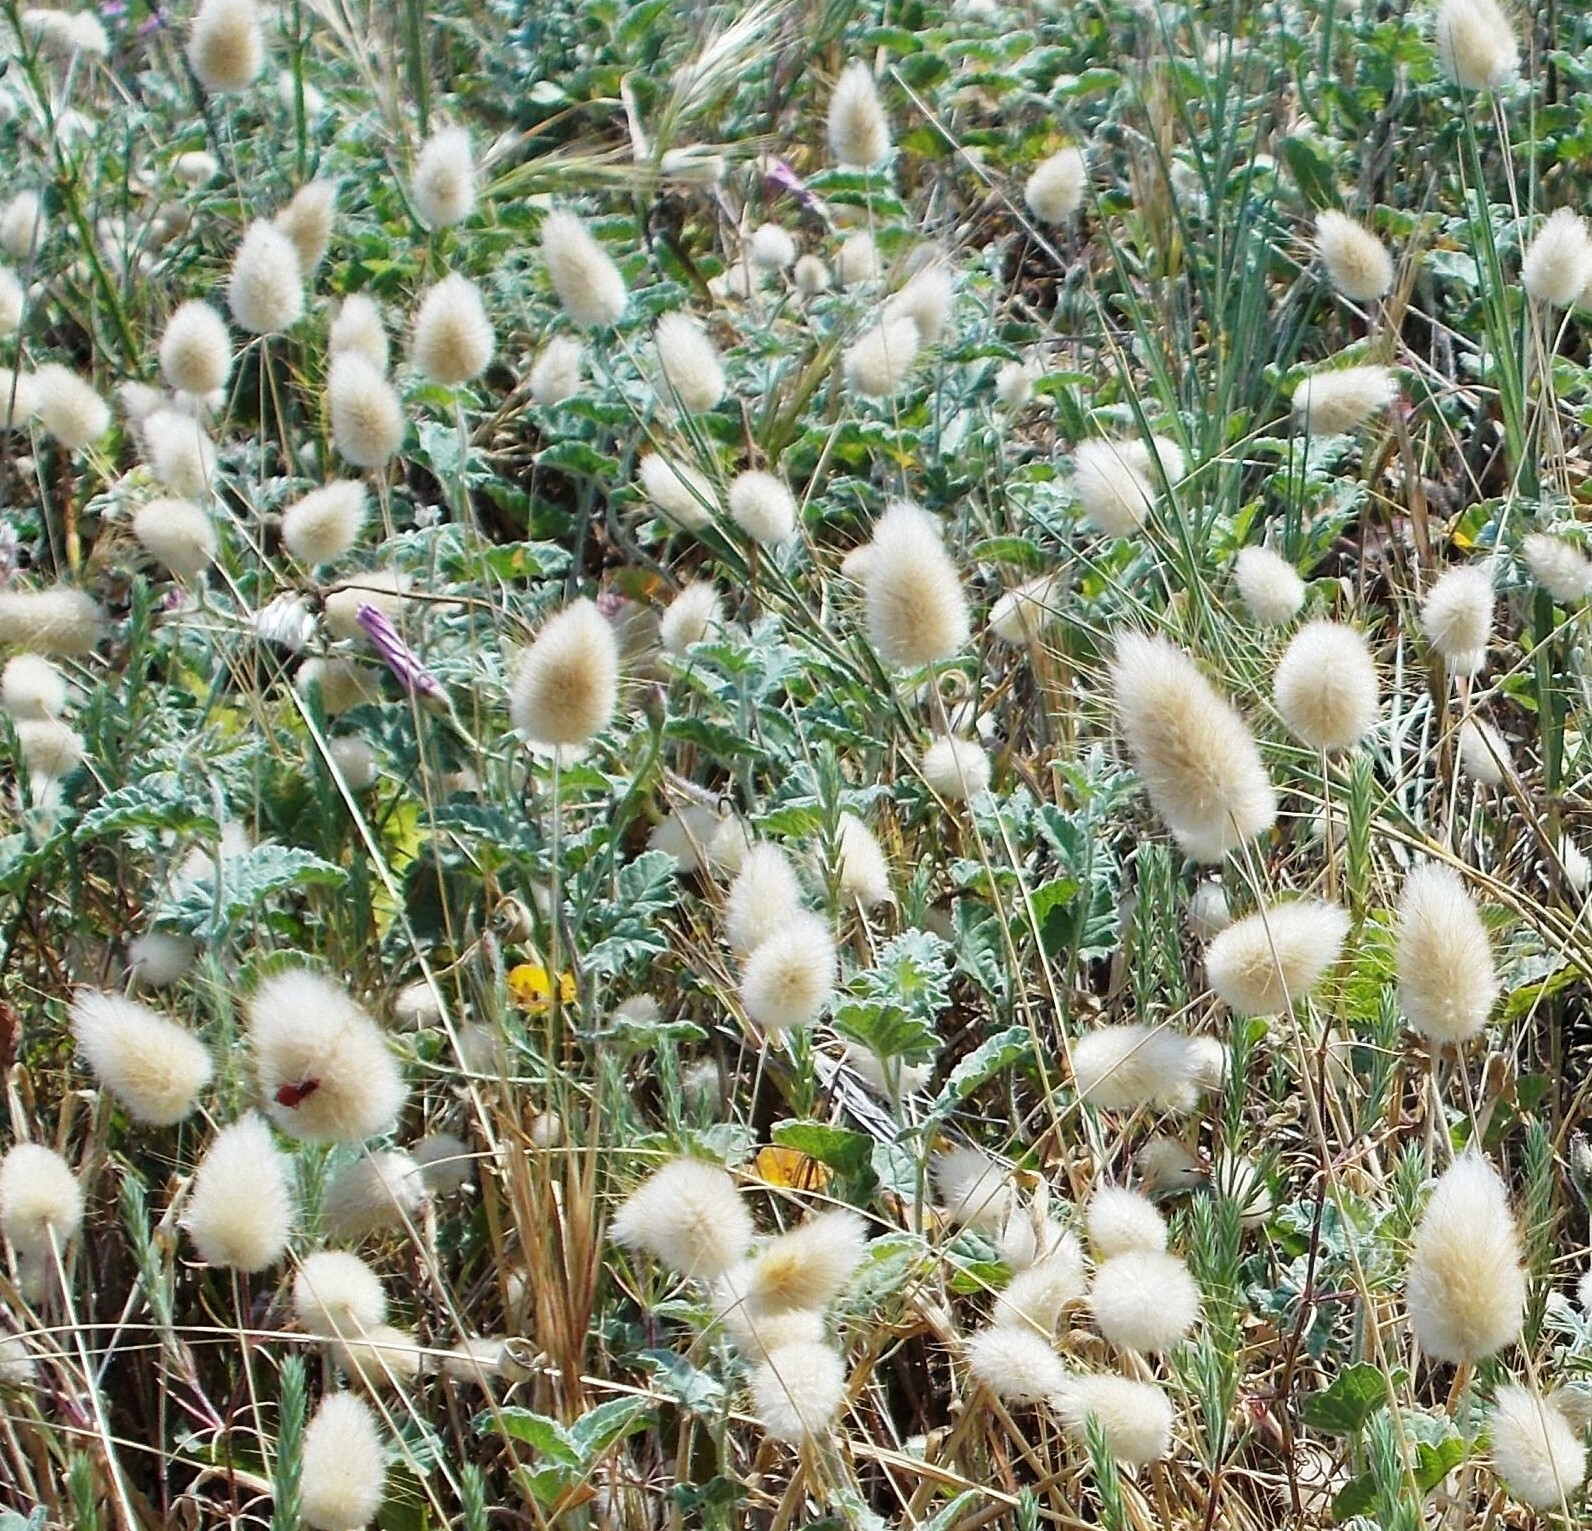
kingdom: Plantae
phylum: Tracheophyta
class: Liliopsida
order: Poales
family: Poaceae
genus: Lagurus
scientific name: Lagurus ovatus
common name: Hare's-tail
